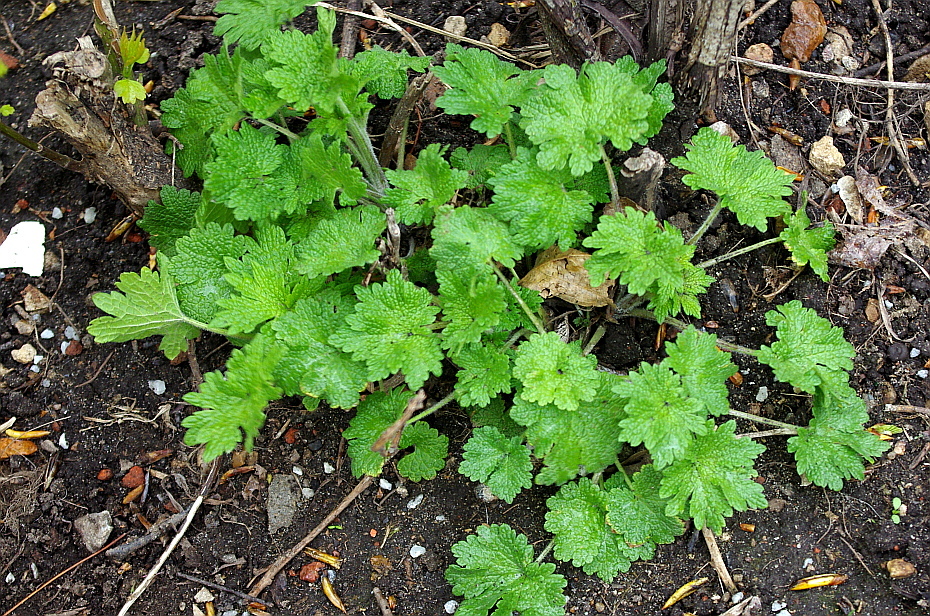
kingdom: Plantae
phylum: Tracheophyta
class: Magnoliopsida
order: Lamiales
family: Lamiaceae
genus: Leonurus
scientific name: Leonurus quinquelobatus
